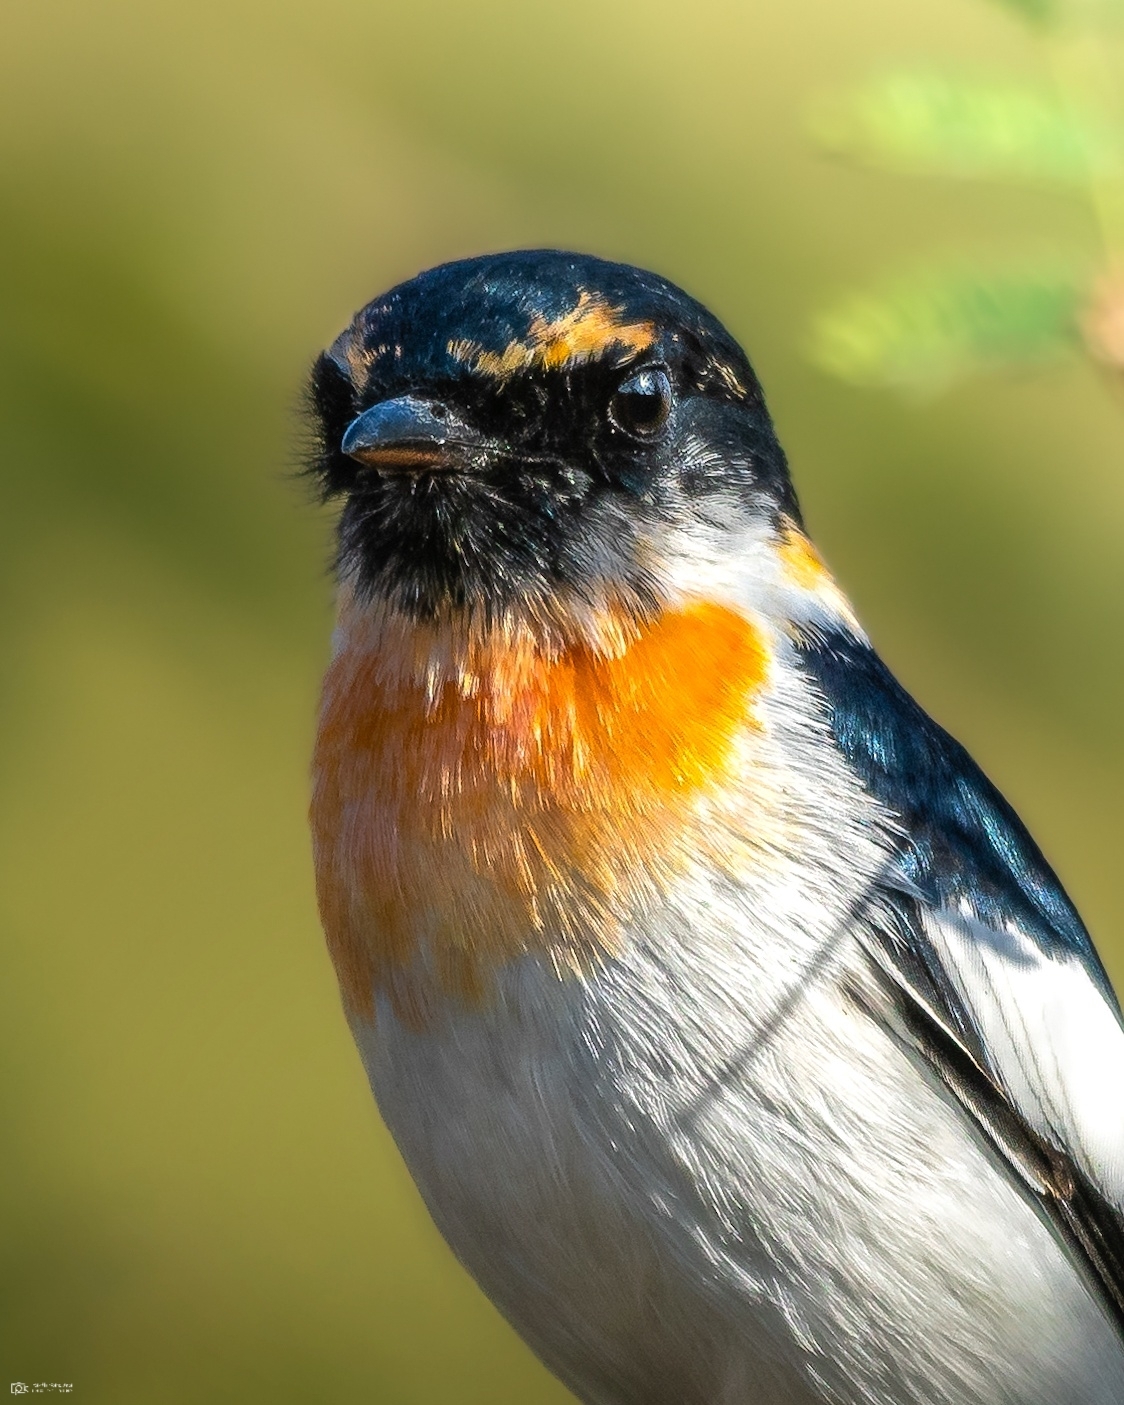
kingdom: Animalia
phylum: Chordata
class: Aves
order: Passeriformes
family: Campephagidae
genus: Pericrocotus
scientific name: Pericrocotus erythropygius
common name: White-bellied minivet
